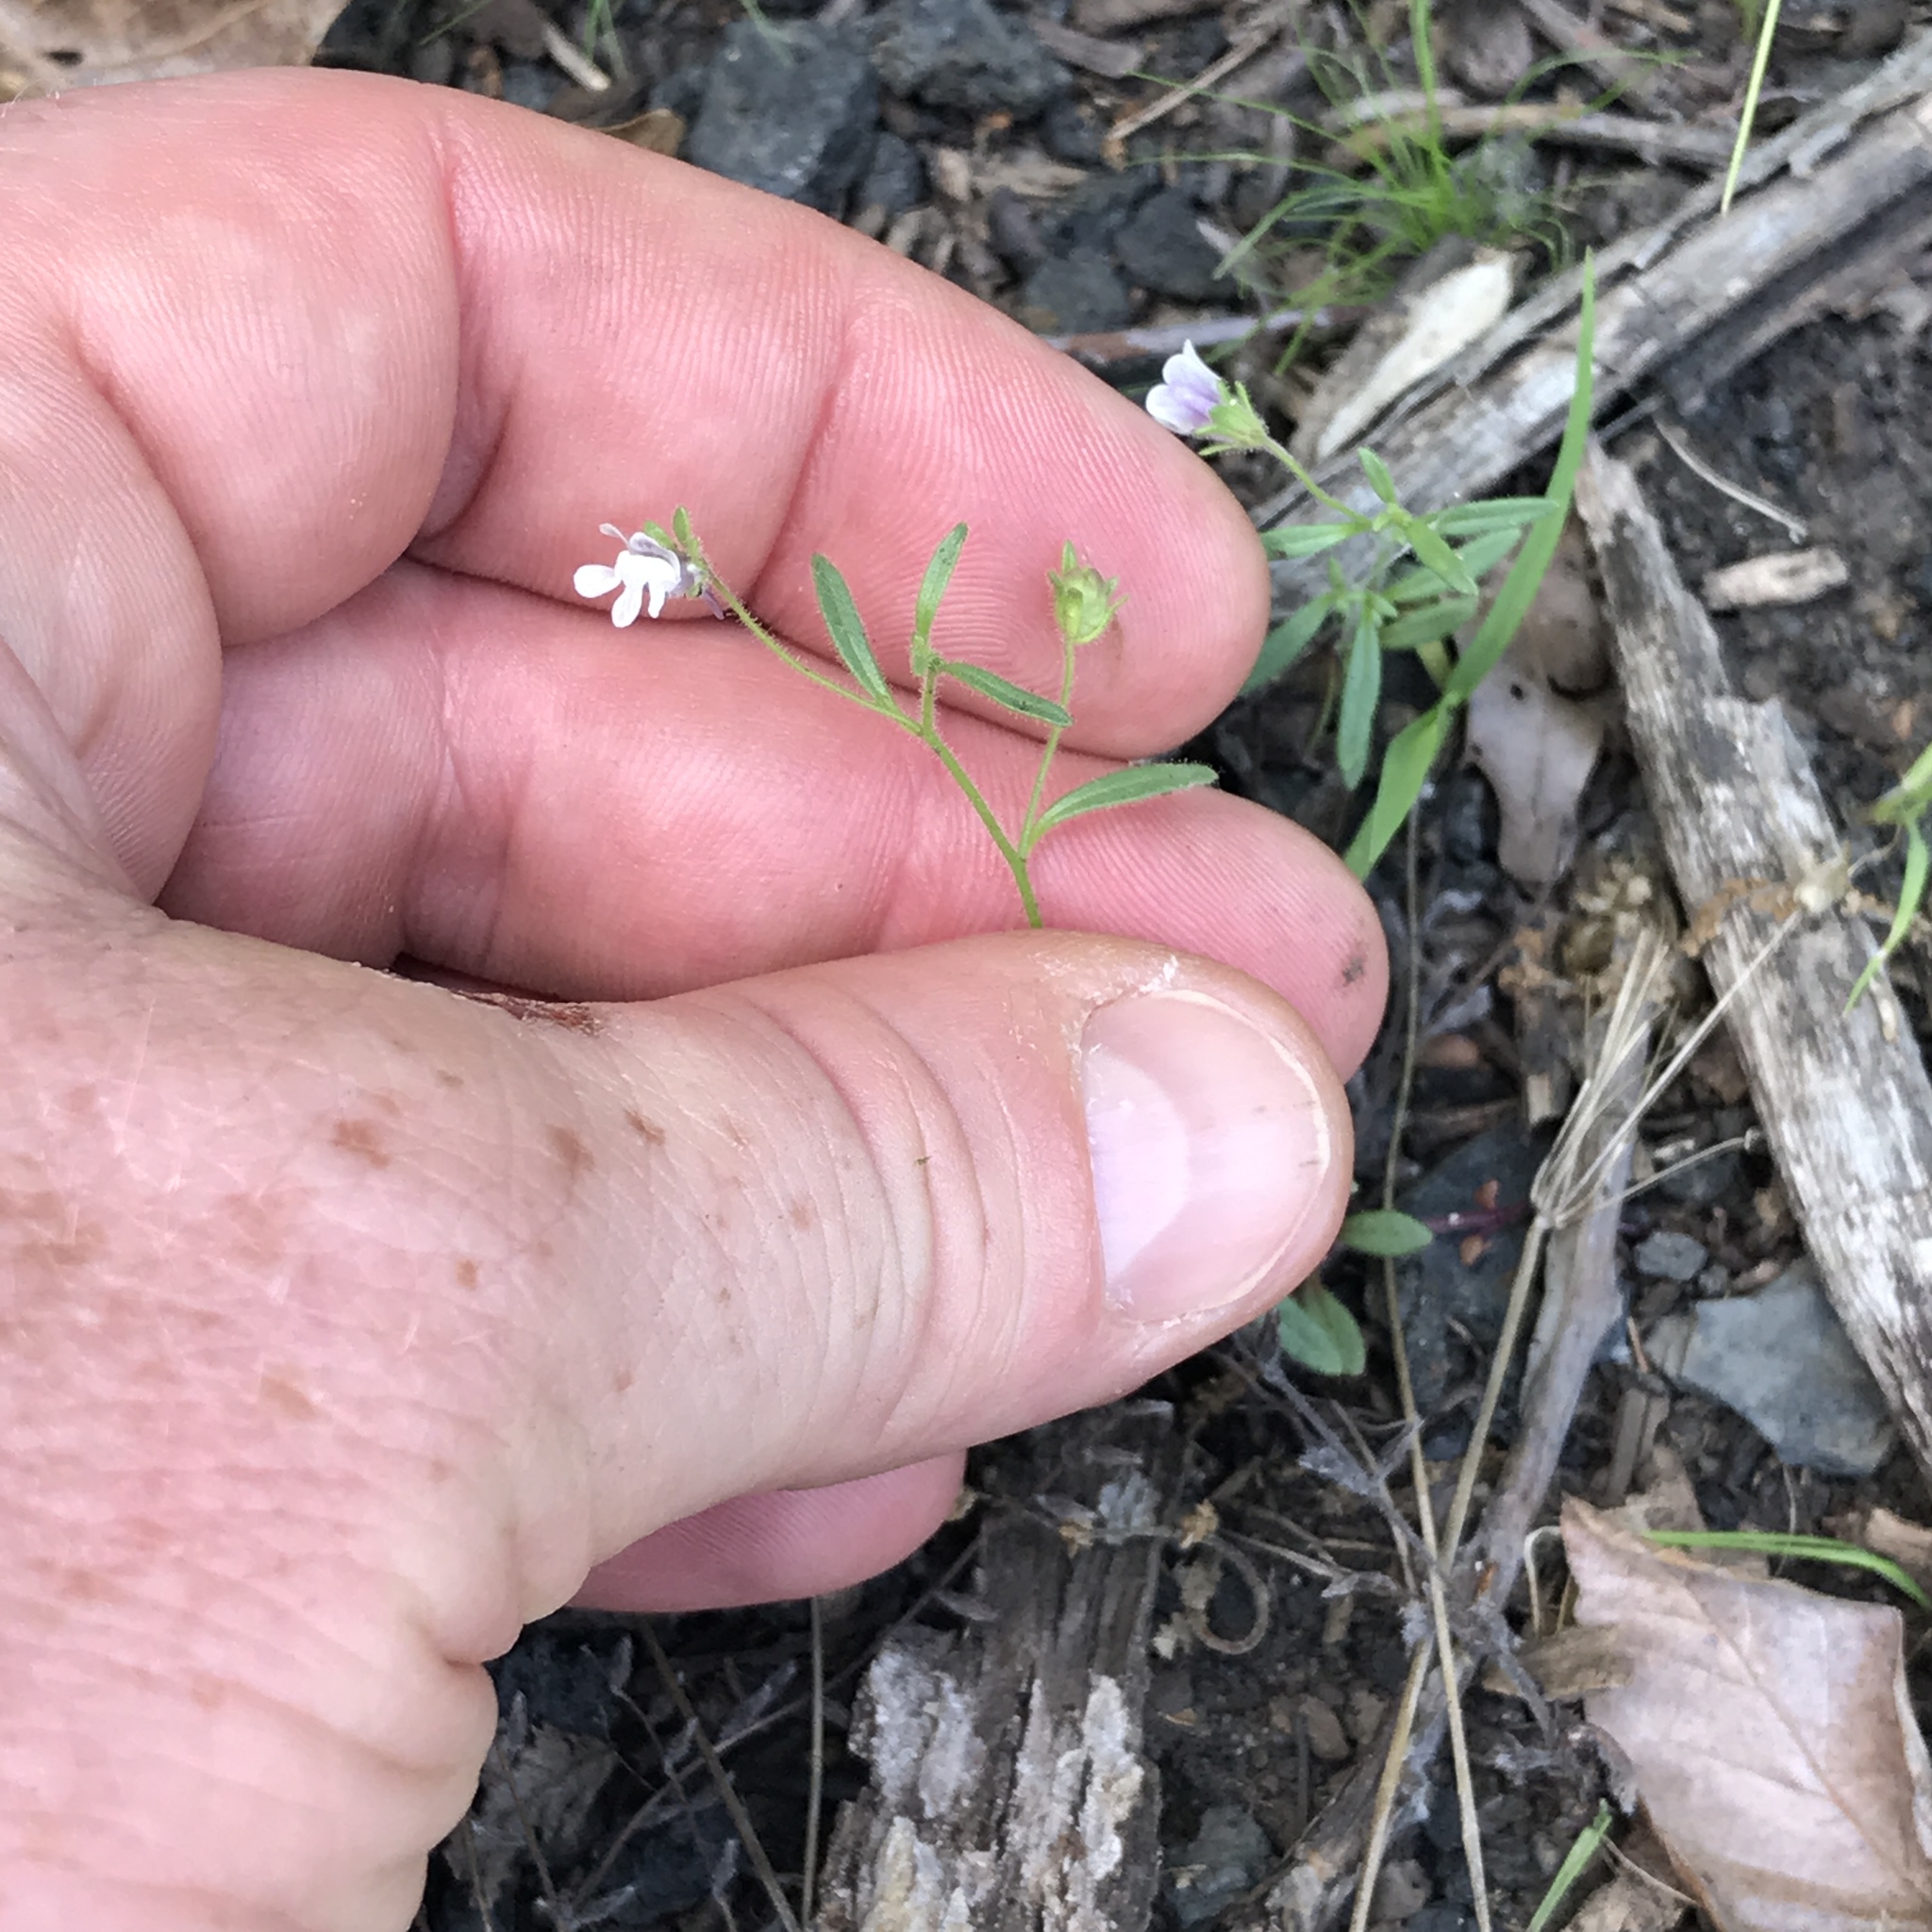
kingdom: Plantae
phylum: Tracheophyta
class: Magnoliopsida
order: Lamiales
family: Plantaginaceae
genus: Chaenorhinum
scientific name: Chaenorhinum minus
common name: Dwarf snapdragon
